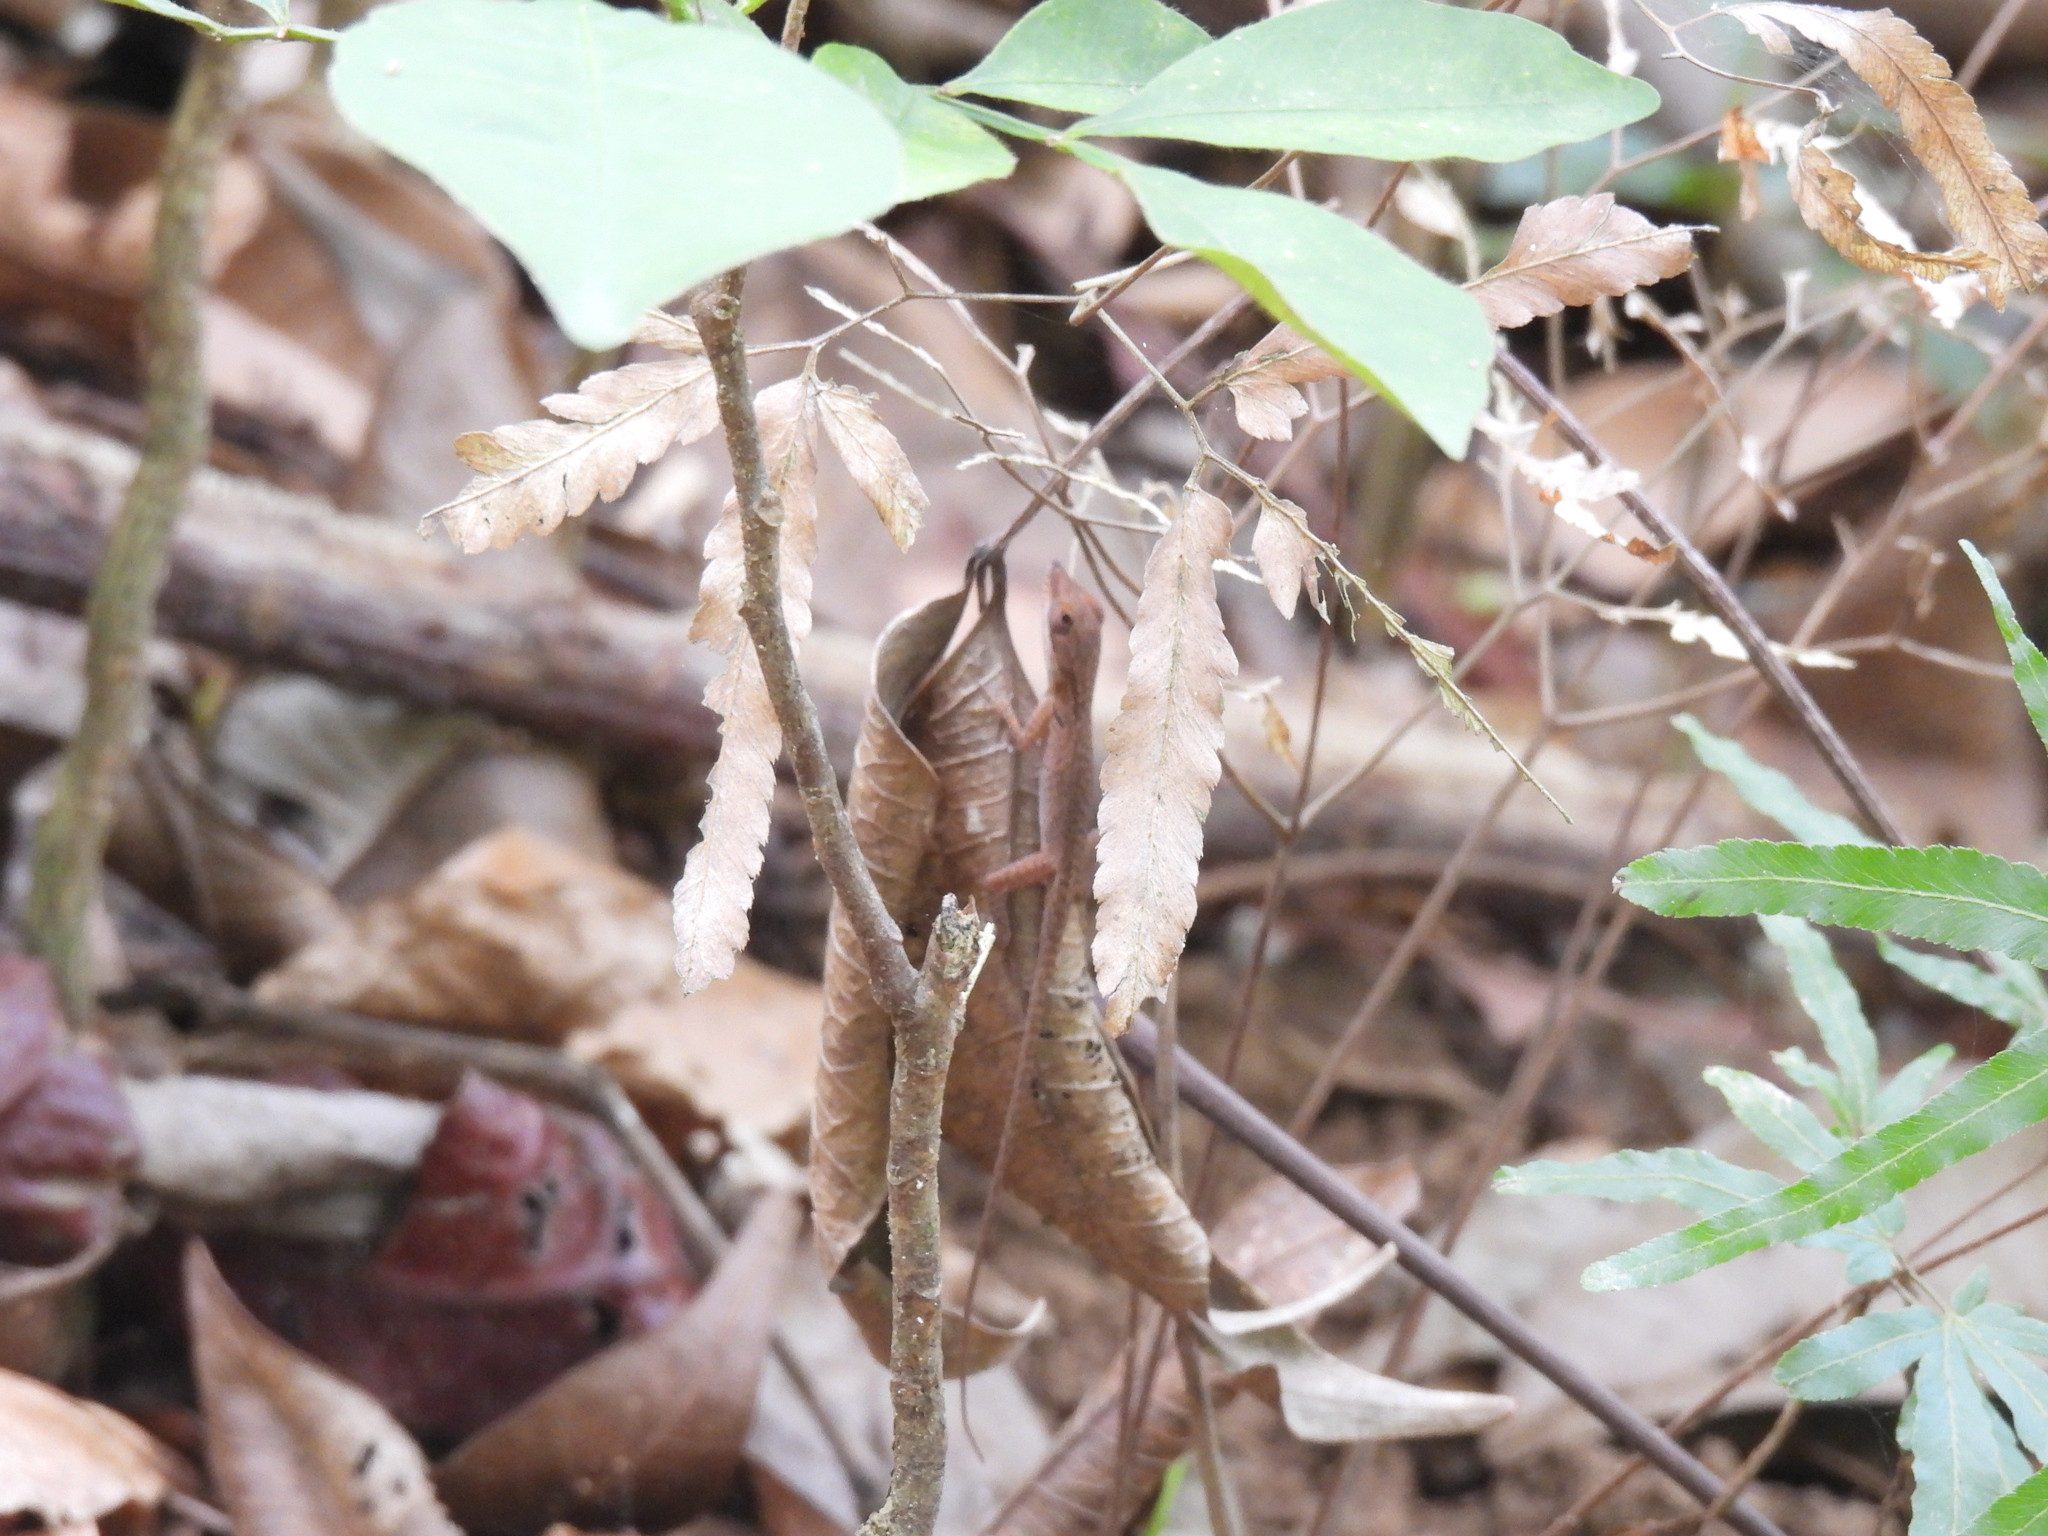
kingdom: Animalia
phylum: Chordata
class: Squamata
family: Dactyloidae
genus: Anolis
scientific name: Anolis allisoni
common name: Allison's anole
